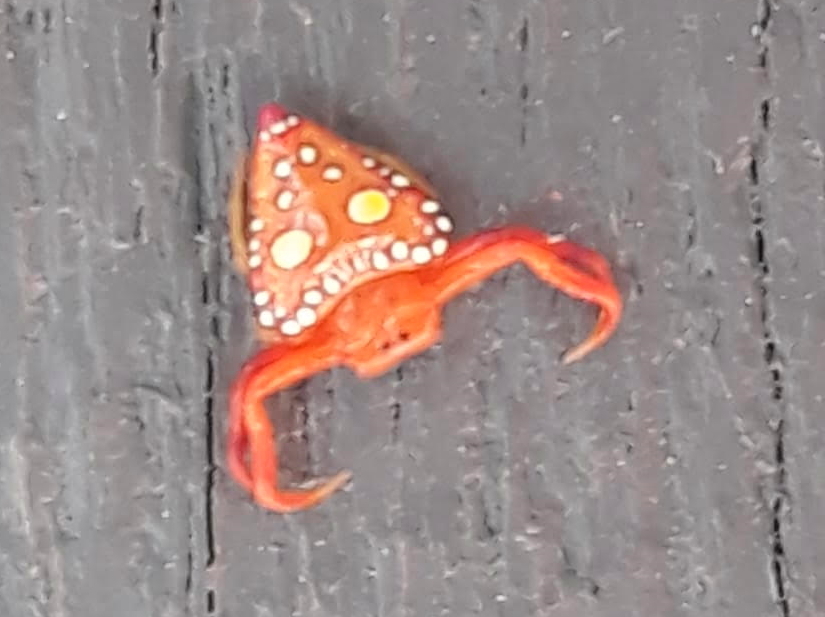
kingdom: Animalia
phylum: Arthropoda
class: Arachnida
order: Araneae
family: Arkyidae
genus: Arkys
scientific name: Arkys lancearius
